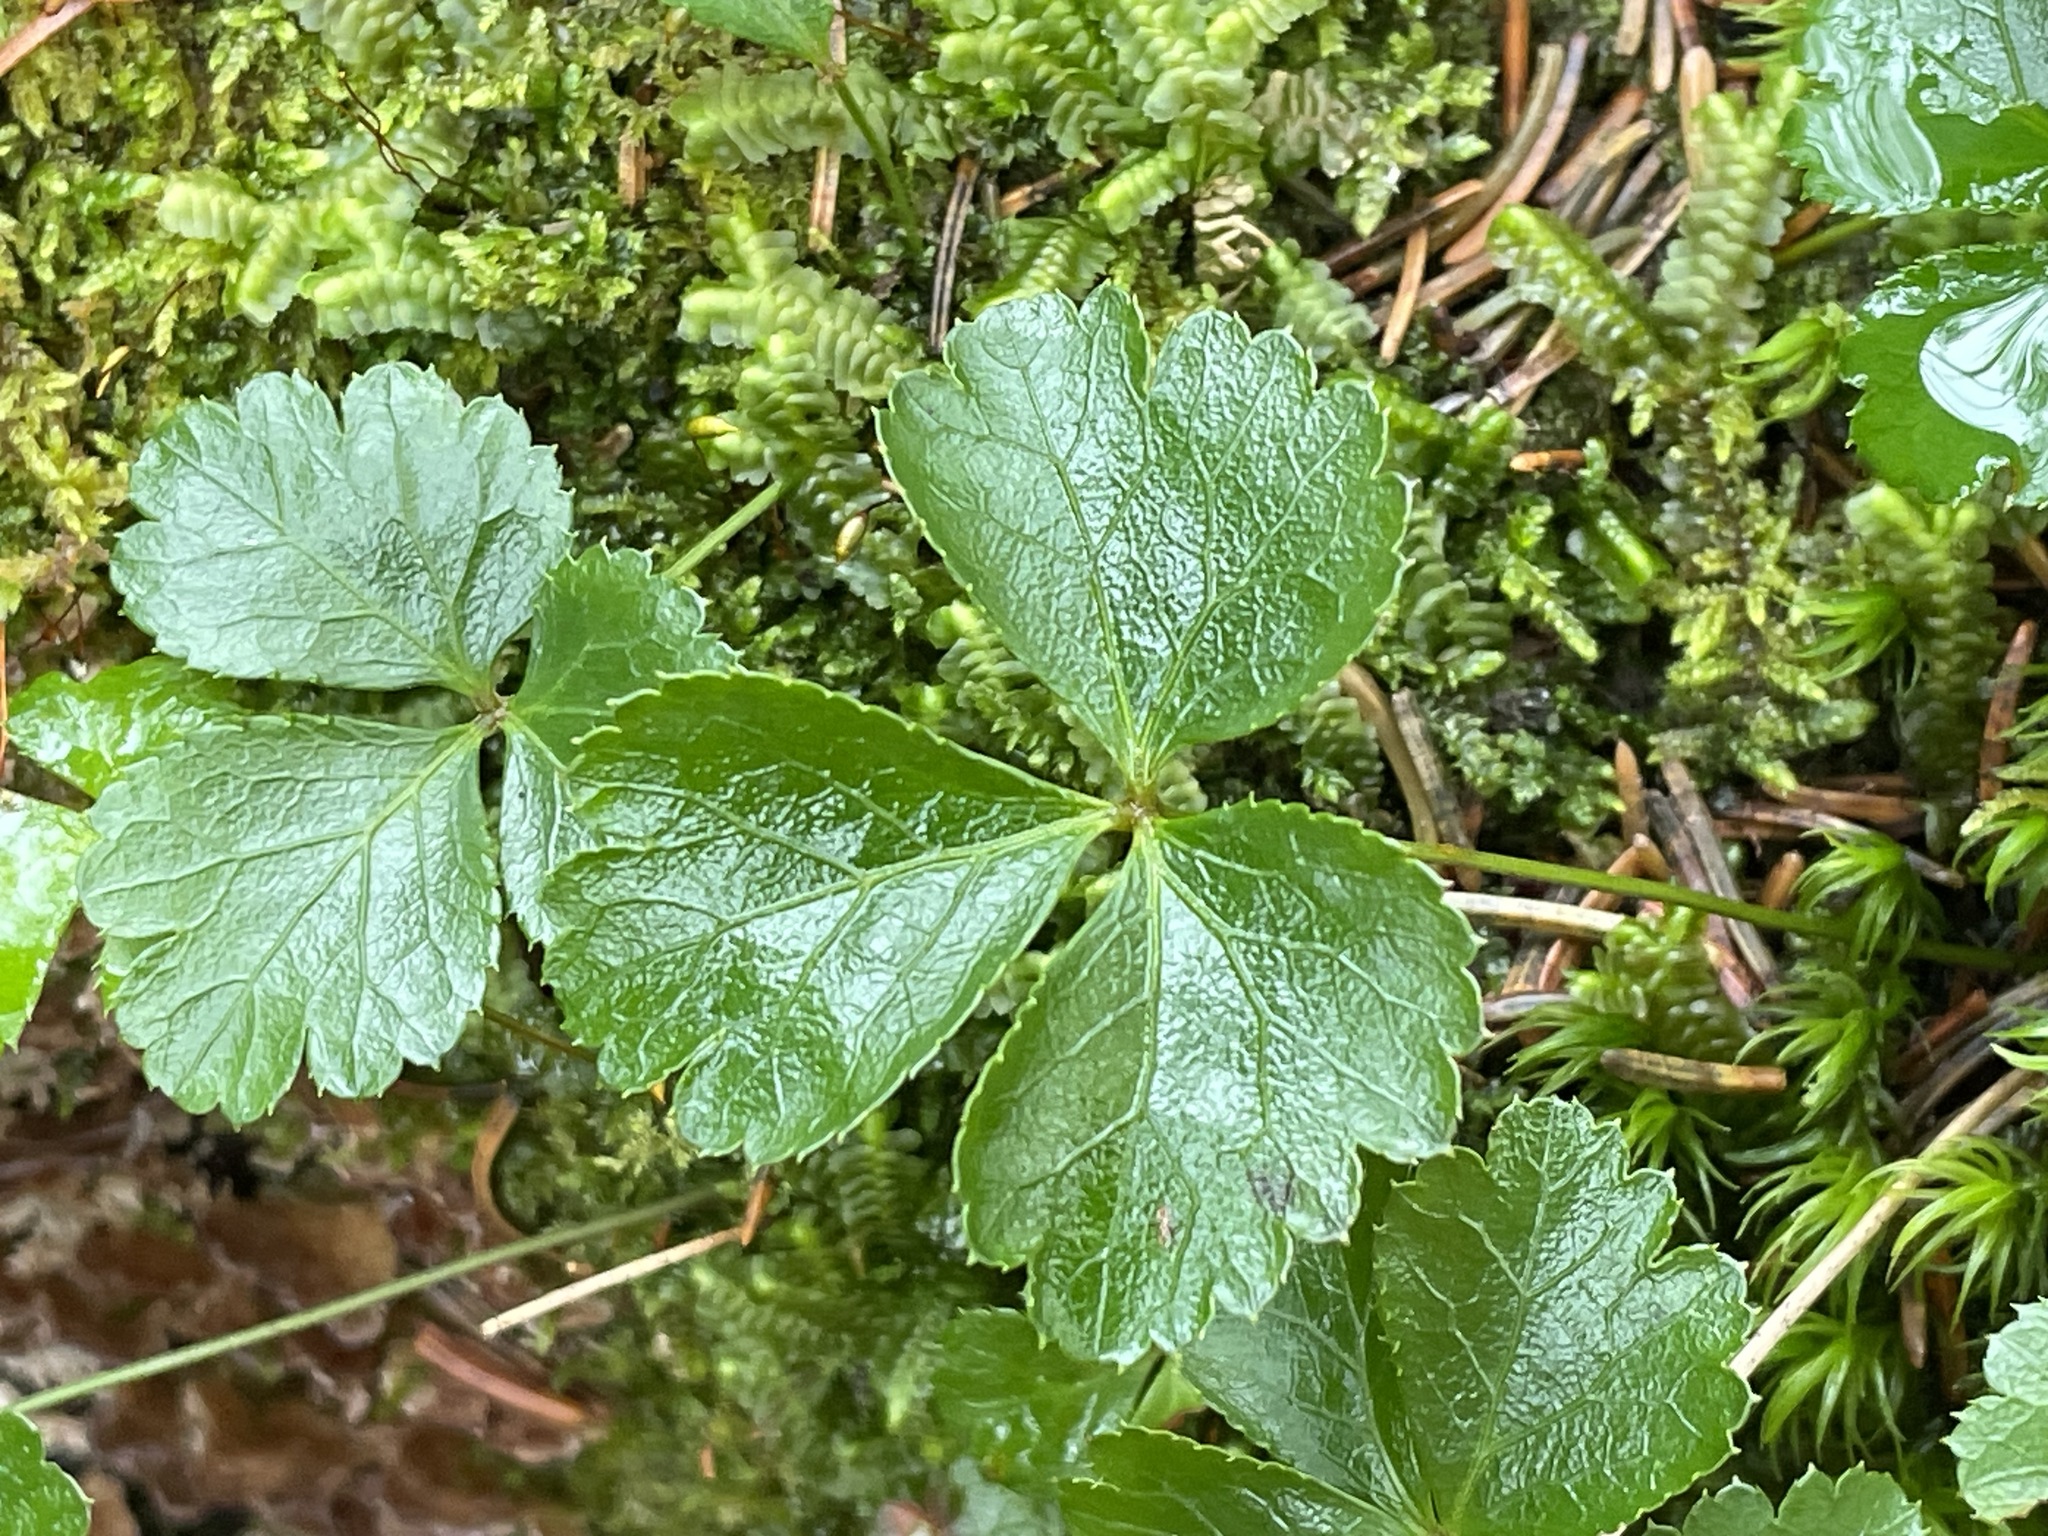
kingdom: Plantae
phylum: Tracheophyta
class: Magnoliopsida
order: Ranunculales
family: Ranunculaceae
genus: Coptis
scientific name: Coptis trifolia
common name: Canker-root
